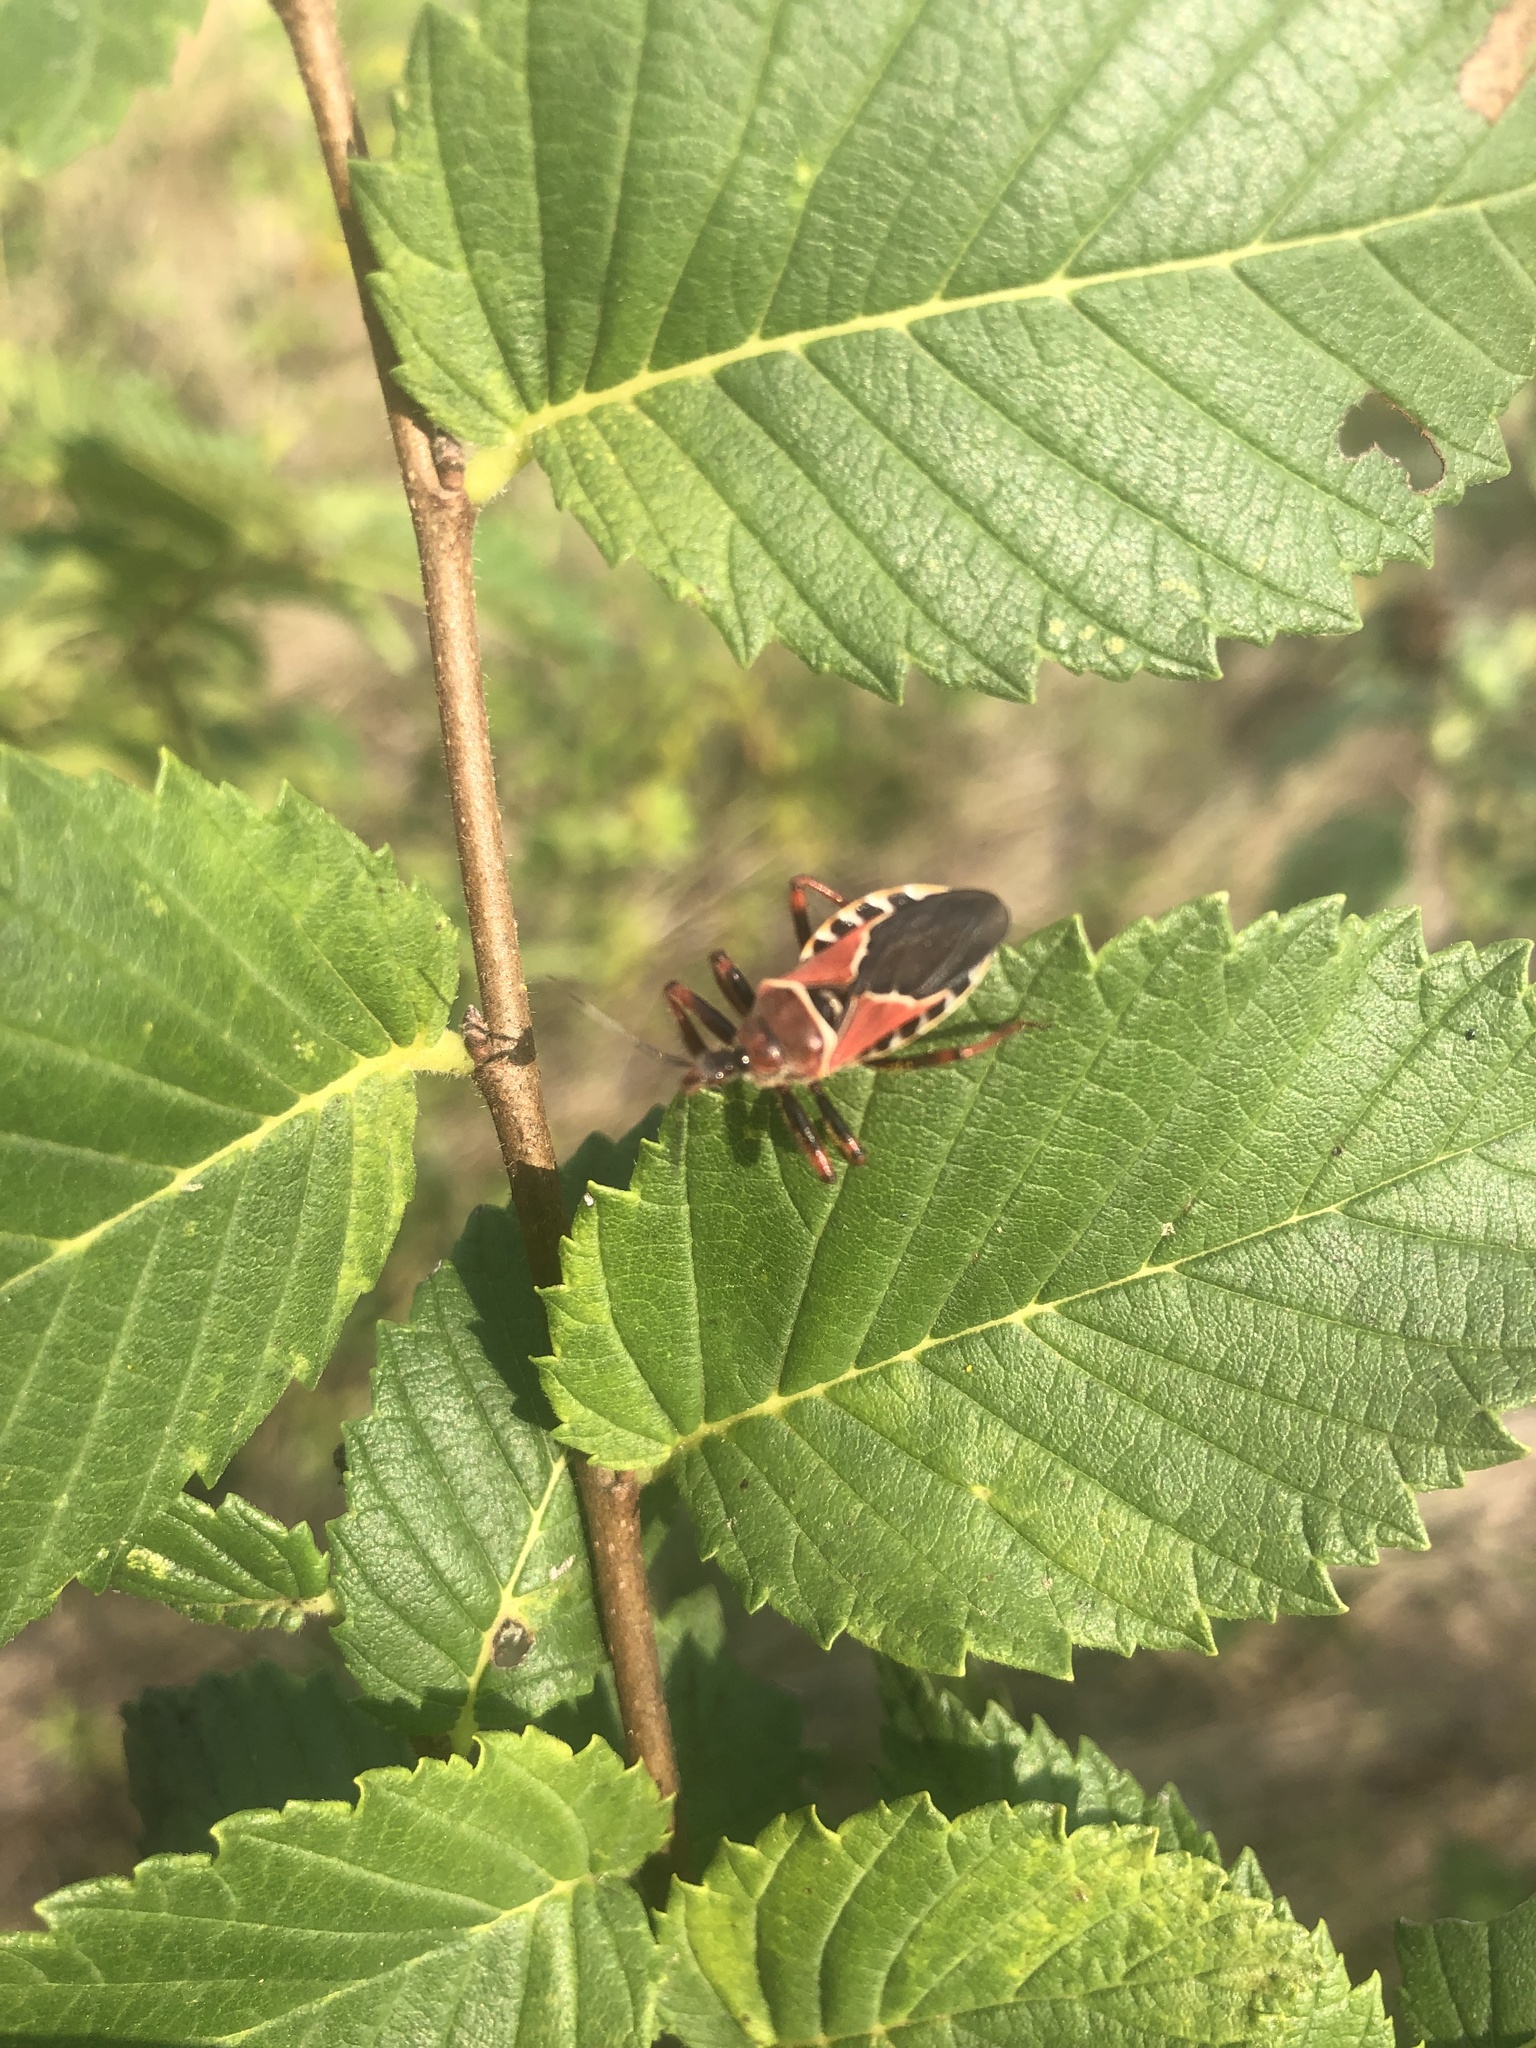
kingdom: Animalia
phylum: Arthropoda
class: Insecta
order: Hemiptera
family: Reduviidae
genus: Apiomerus
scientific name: Apiomerus spissipes
